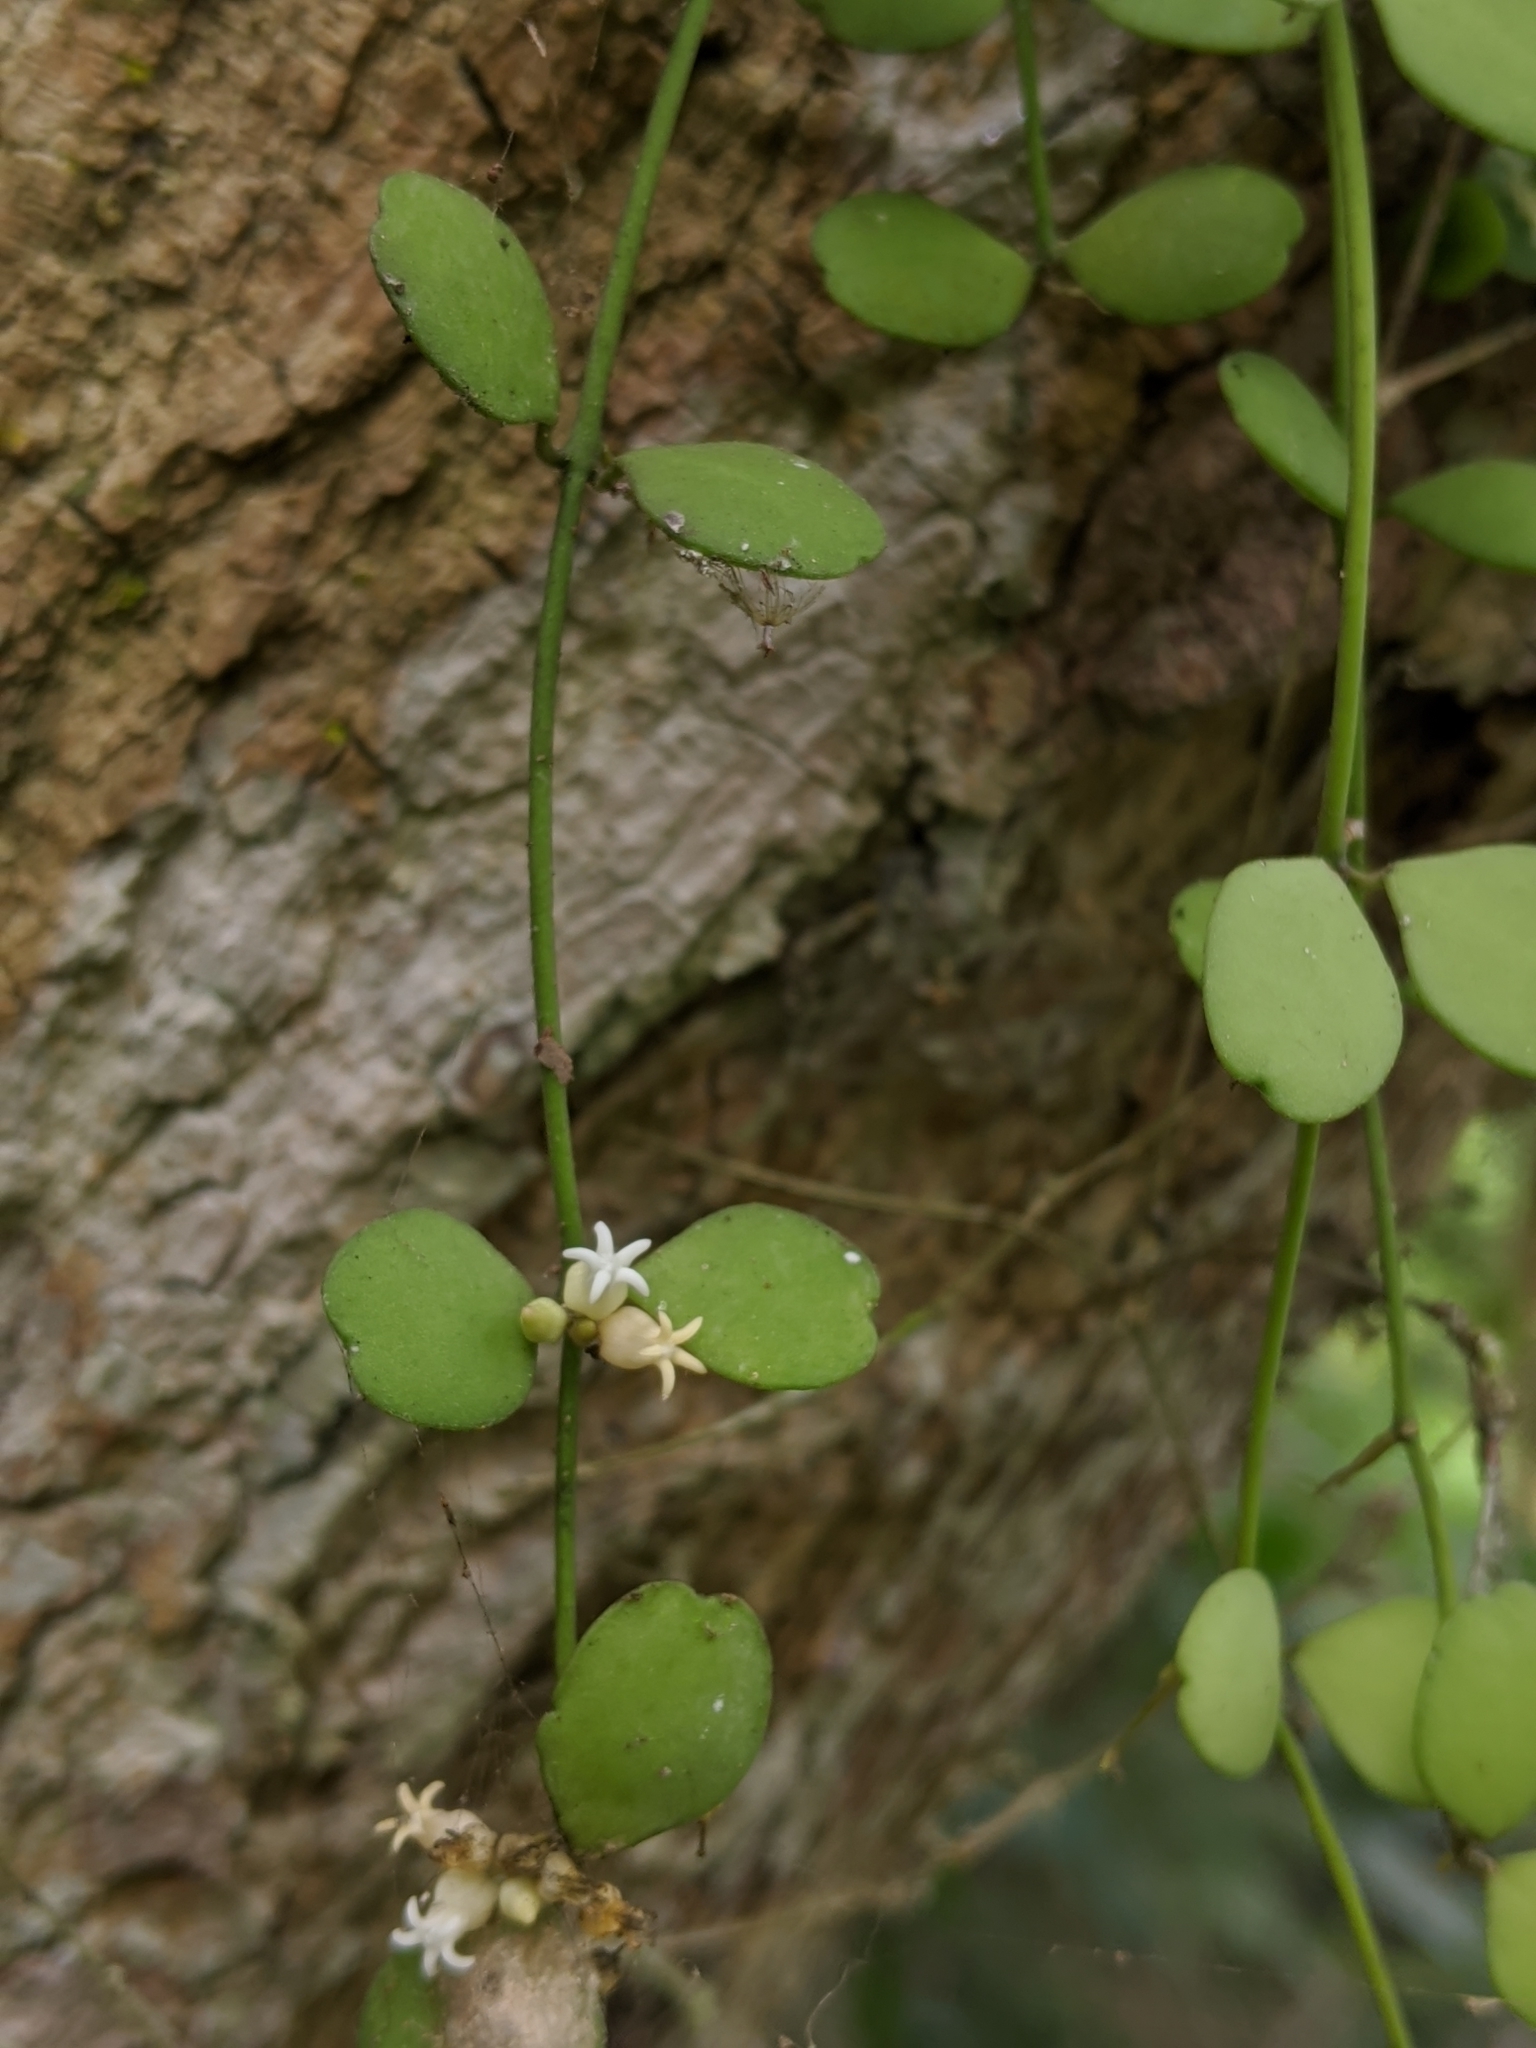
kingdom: Plantae
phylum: Tracheophyta
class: Magnoliopsida
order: Gentianales
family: Apocynaceae
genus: Dischidia
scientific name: Dischidia formosana
